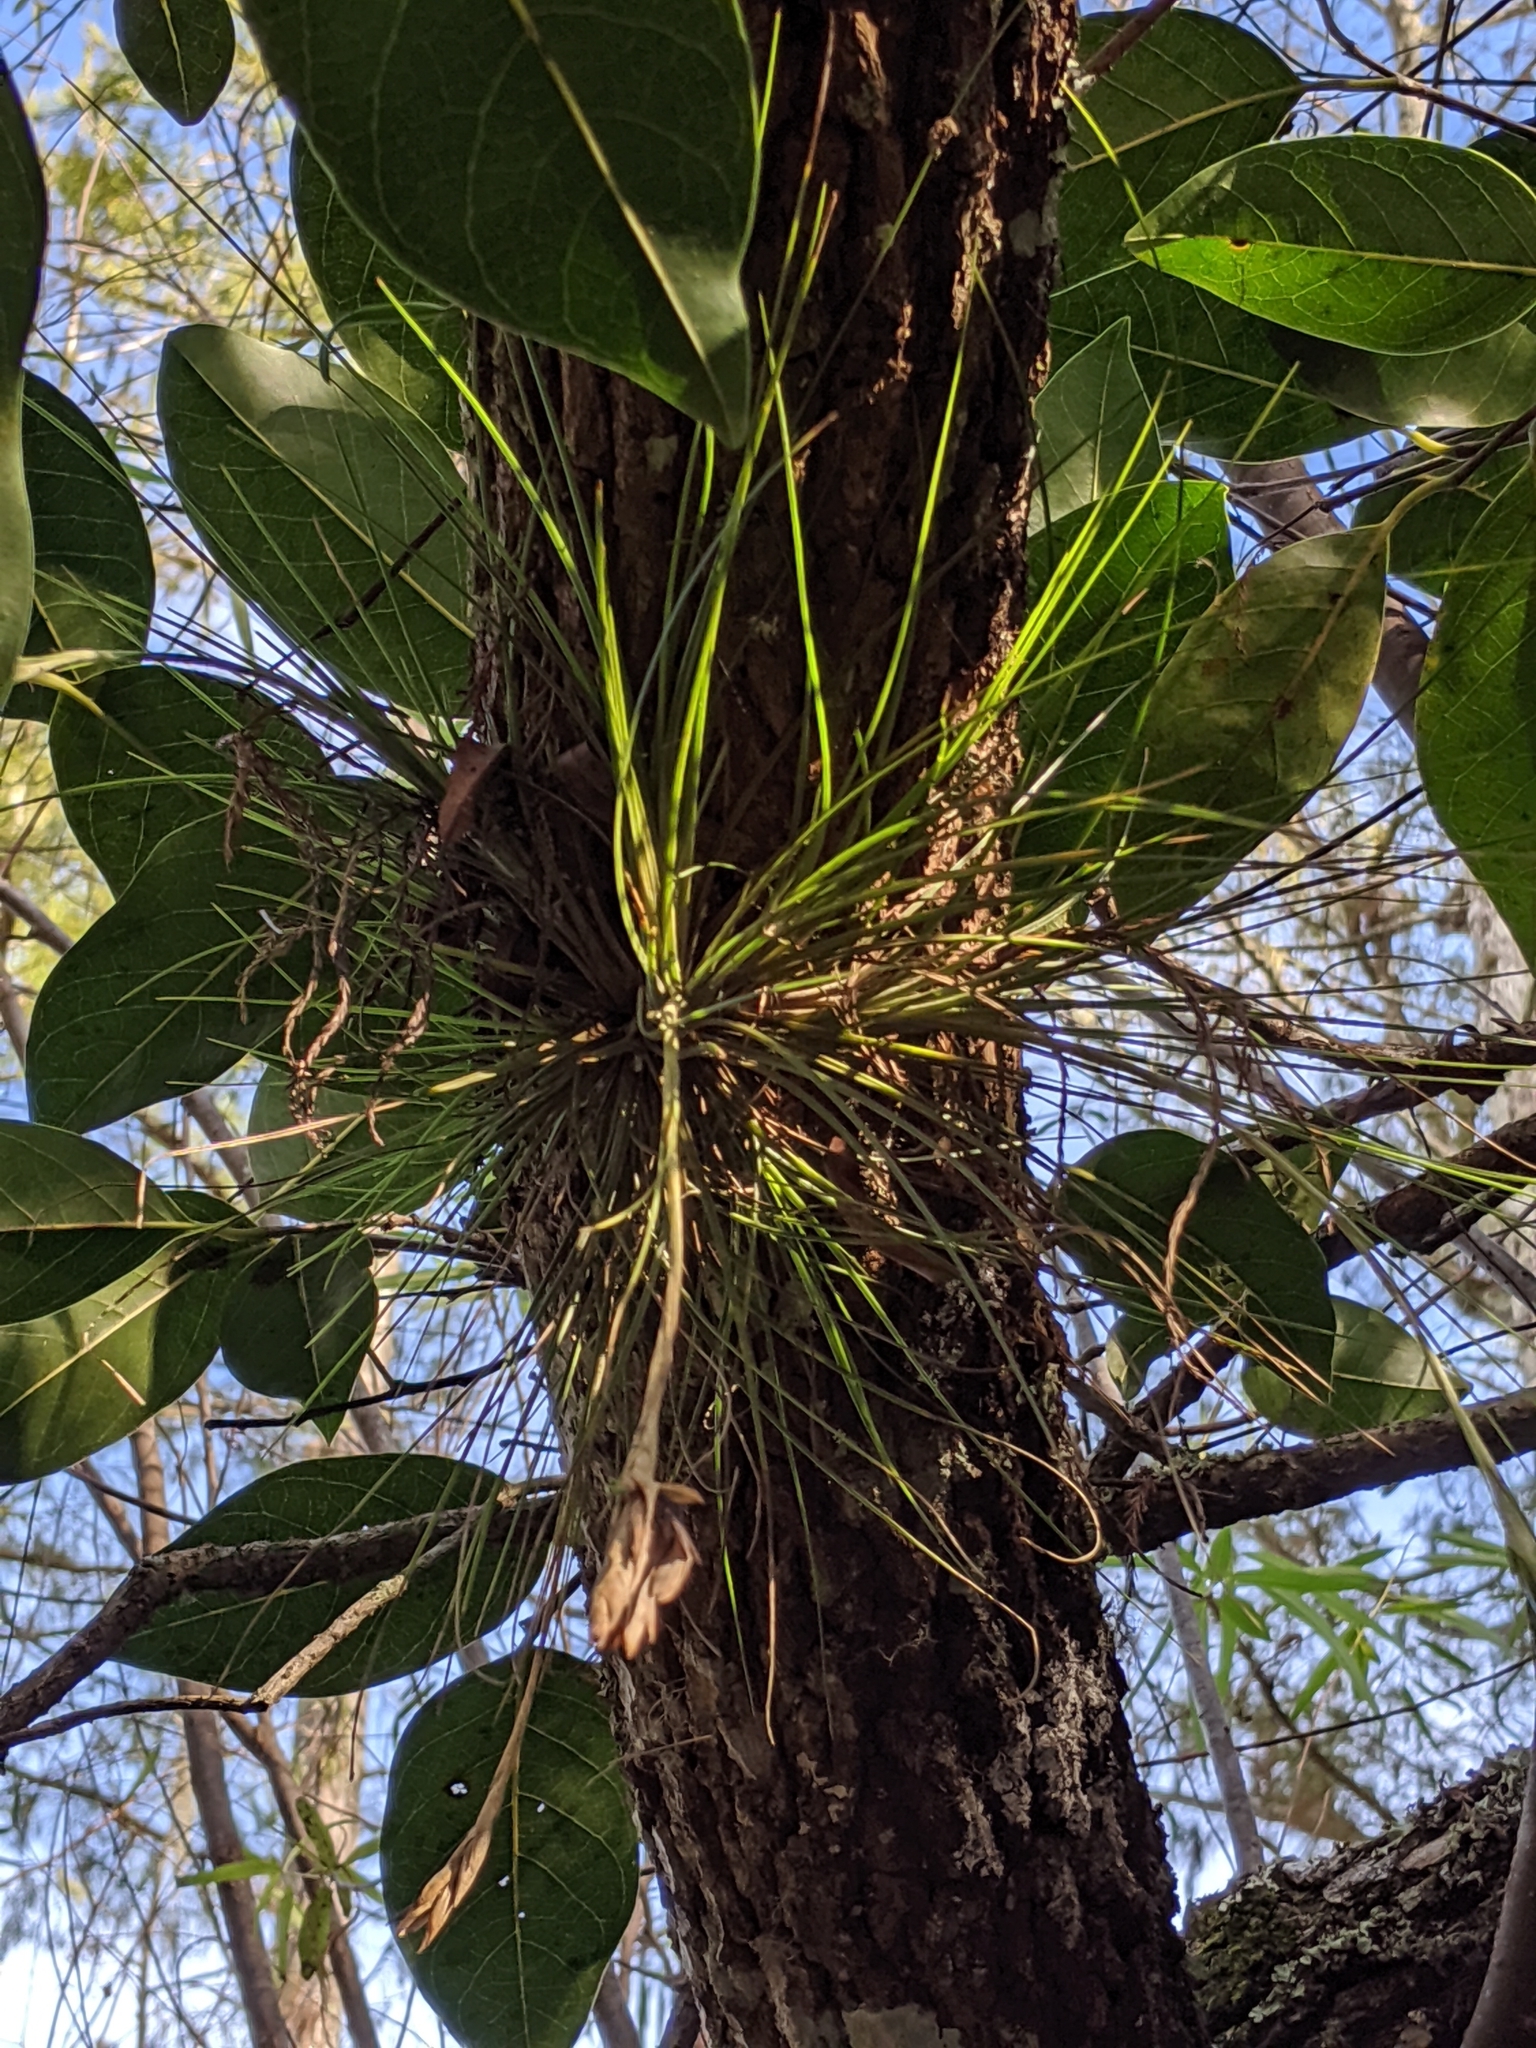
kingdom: Plantae
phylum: Tracheophyta
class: Liliopsida
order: Poales
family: Bromeliaceae
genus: Tillandsia
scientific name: Tillandsia setacea
